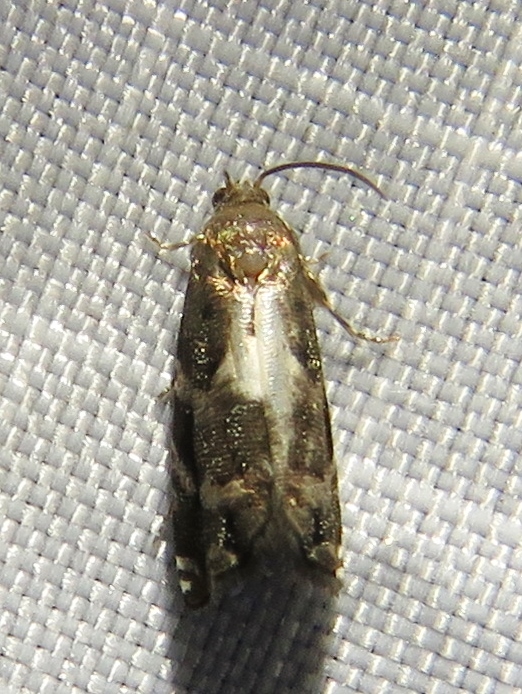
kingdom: Animalia
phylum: Arthropoda
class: Insecta
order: Lepidoptera
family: Tortricidae
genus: Cydia
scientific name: Cydia albimaculana
